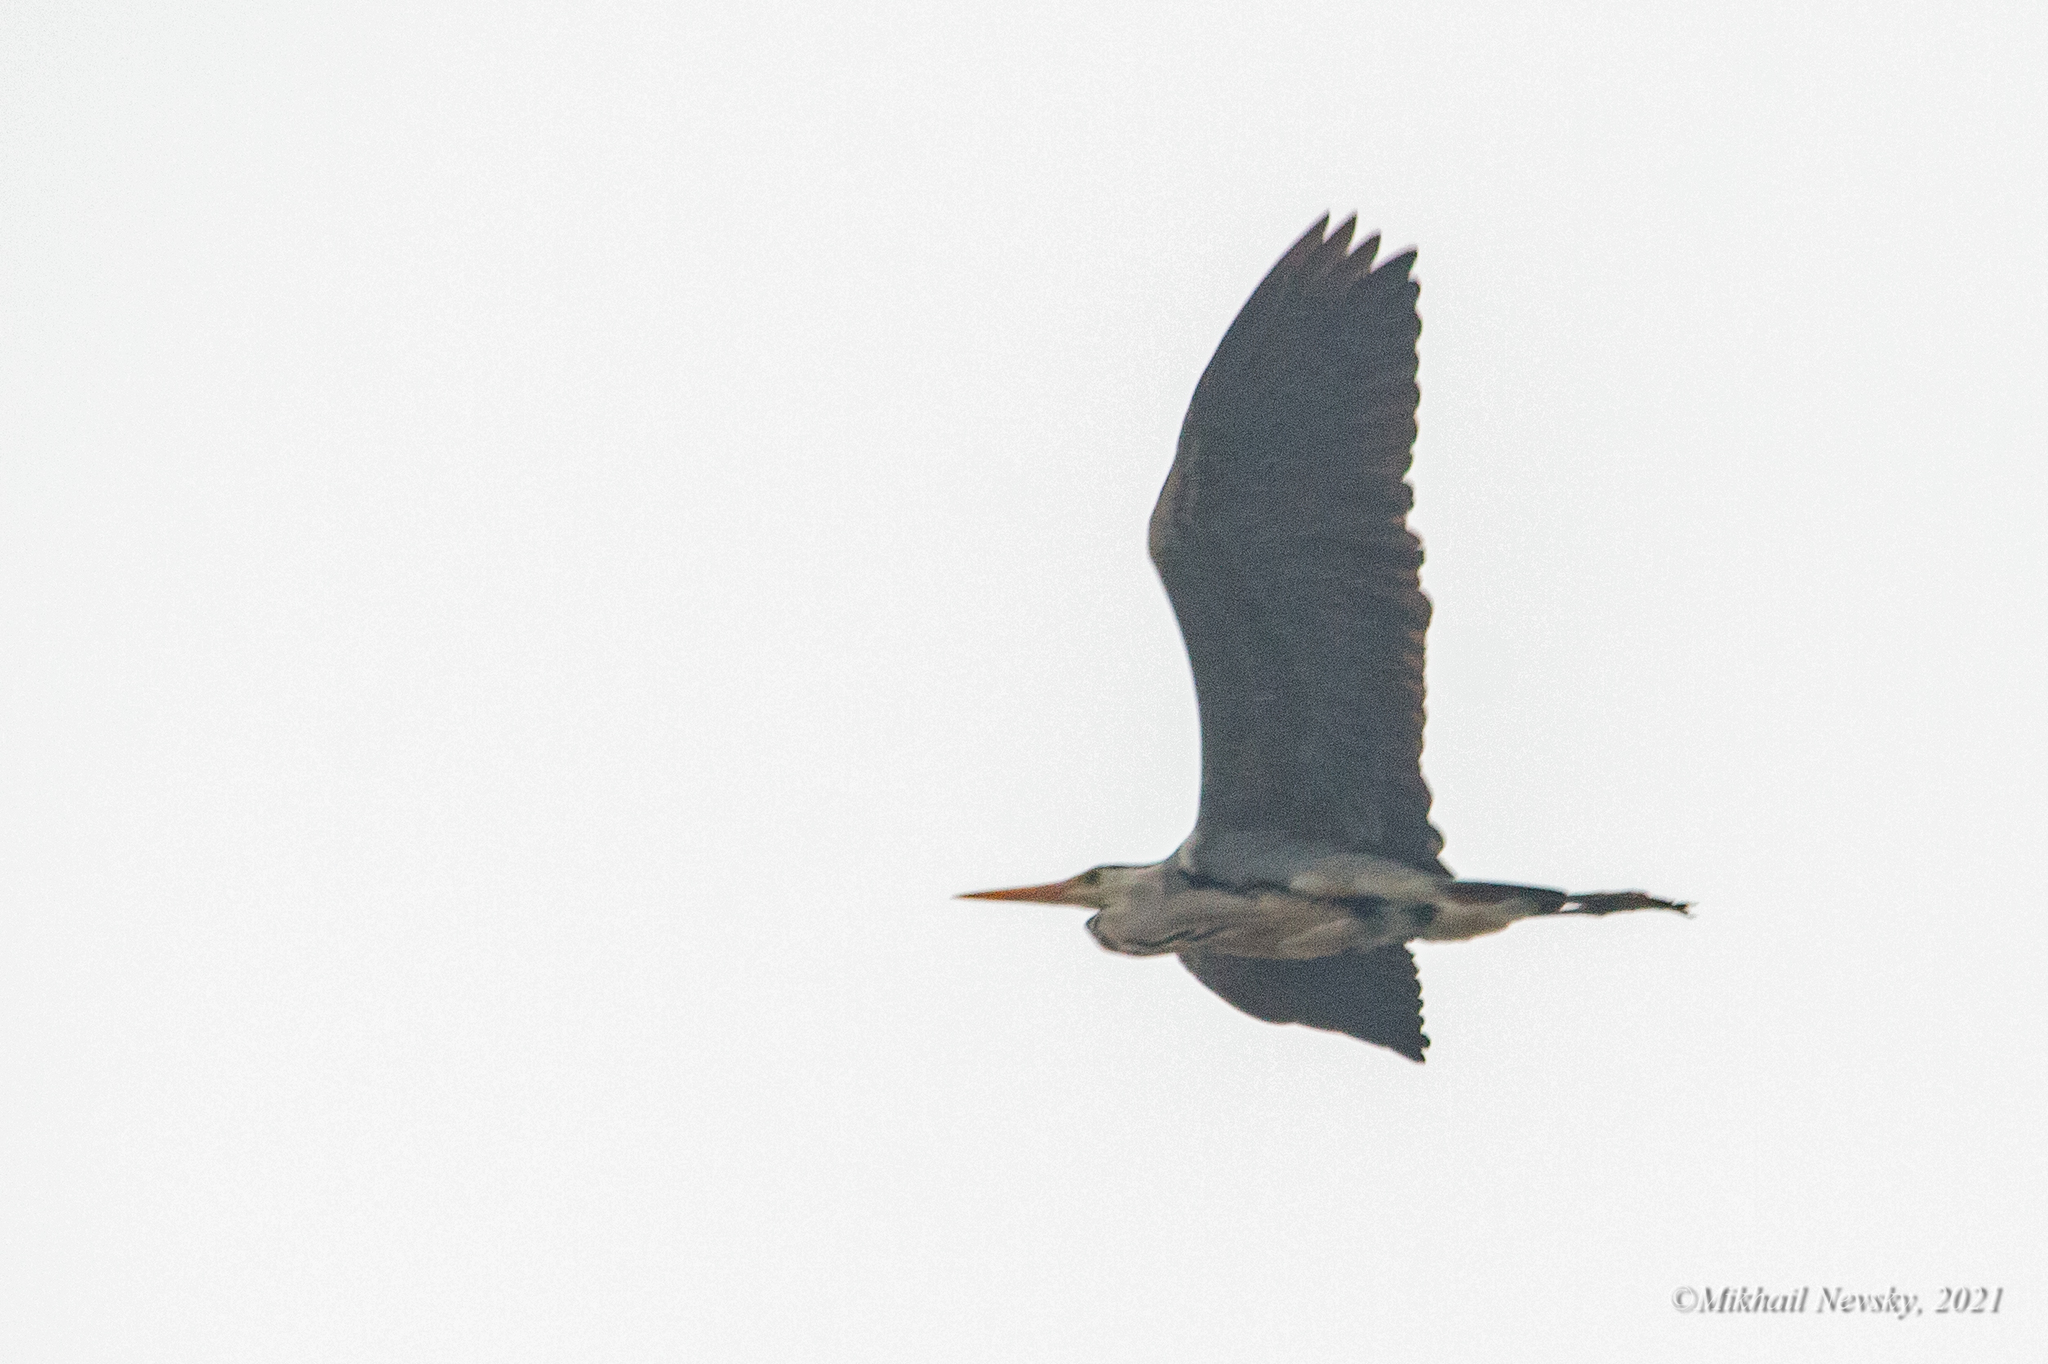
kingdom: Animalia
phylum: Chordata
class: Aves
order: Pelecaniformes
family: Ardeidae
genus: Ardea
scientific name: Ardea cinerea
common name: Grey heron
